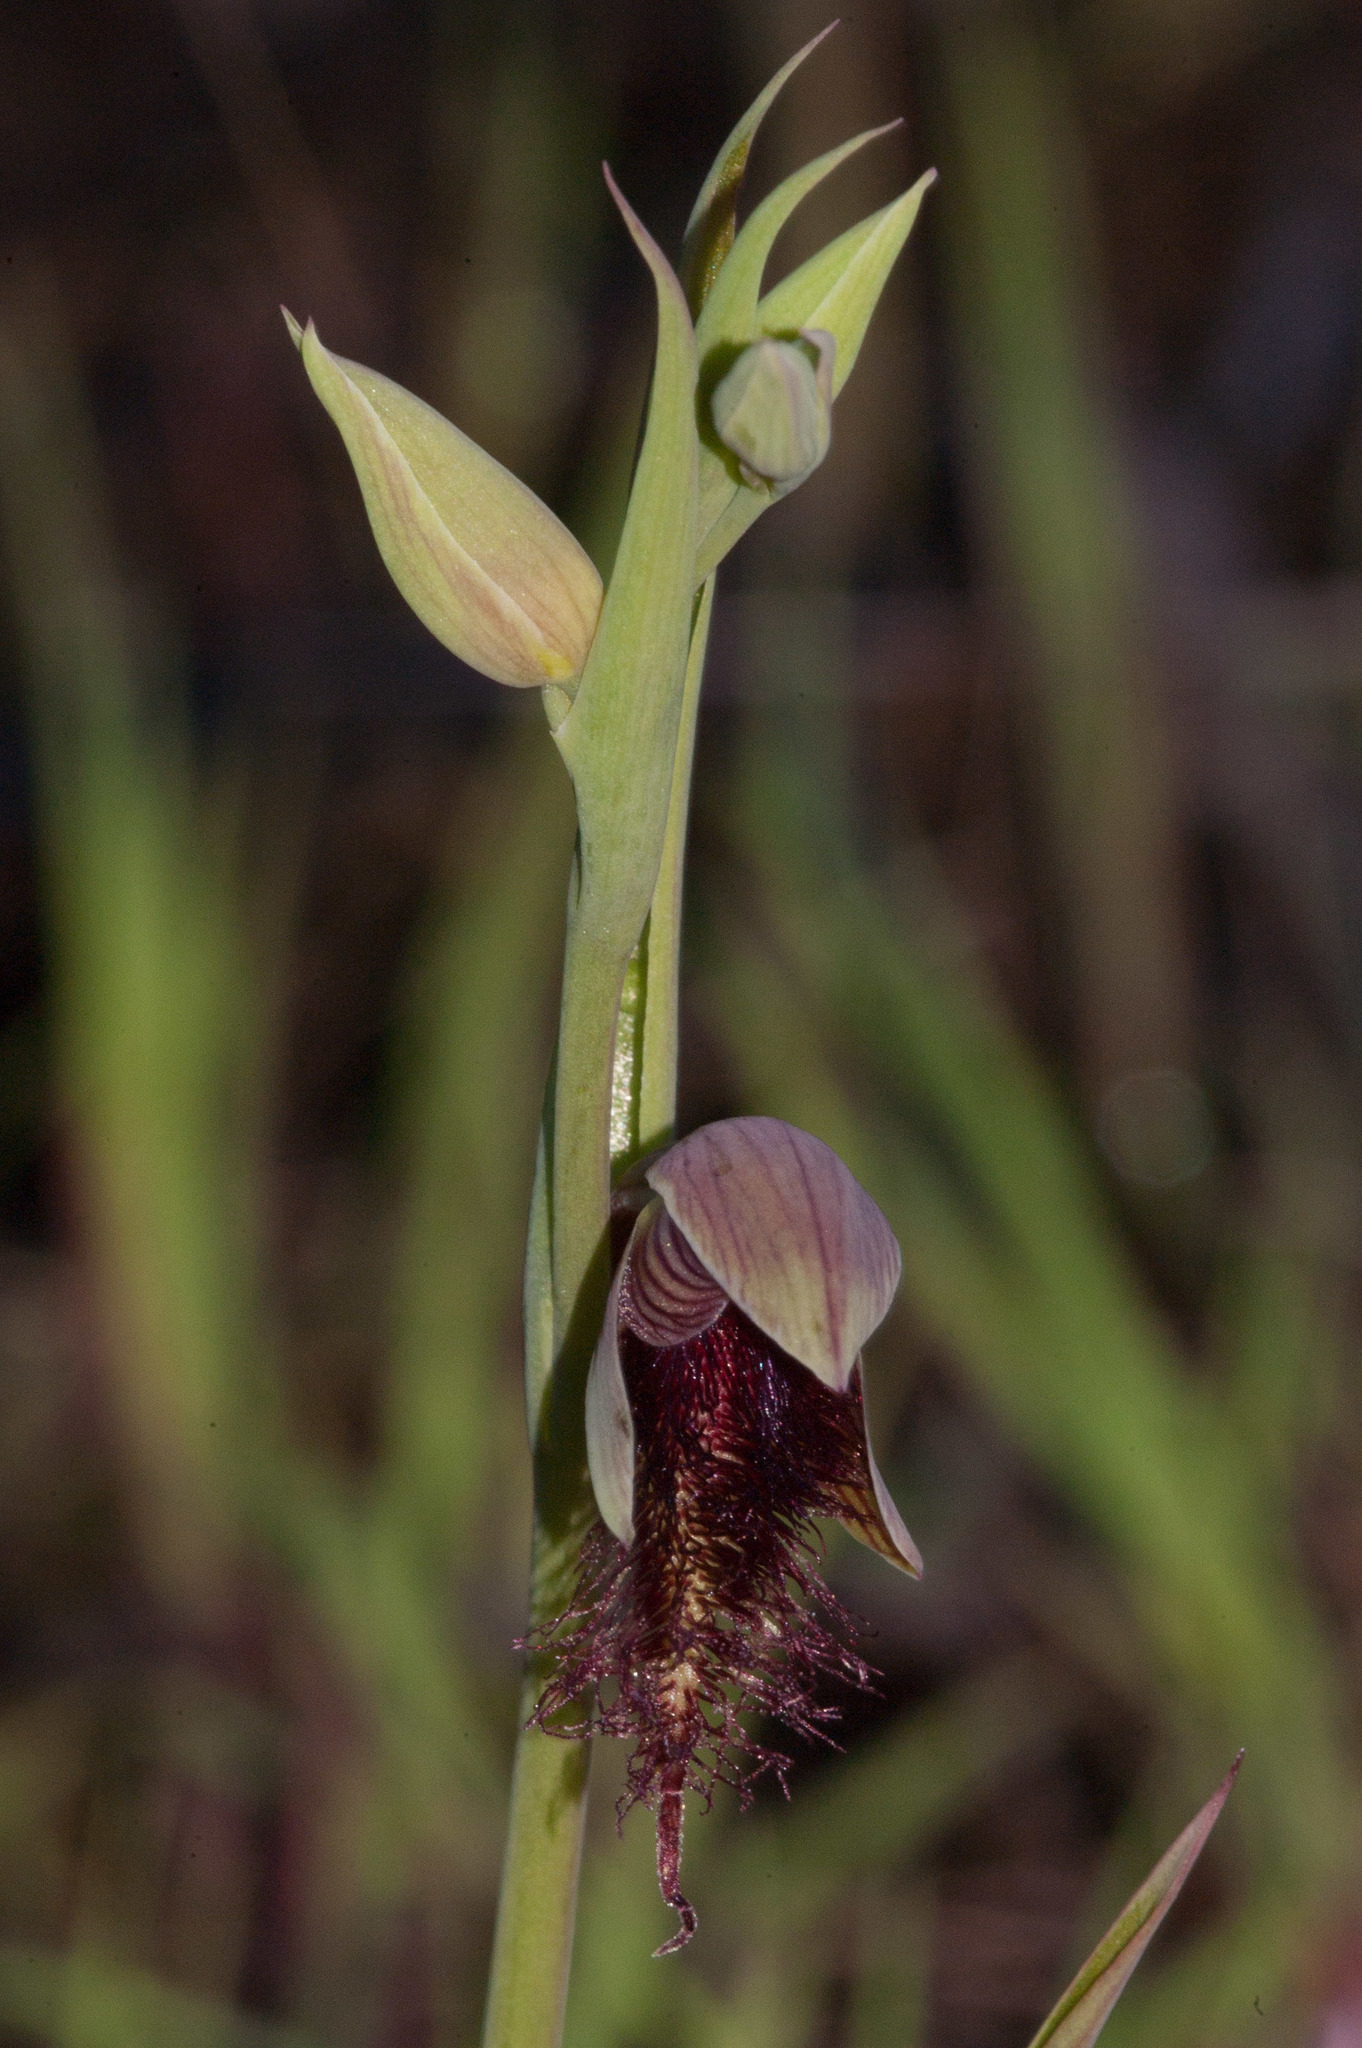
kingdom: Plantae
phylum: Tracheophyta
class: Liliopsida
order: Asparagales
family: Orchidaceae
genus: Calochilus
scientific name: Calochilus paludosus
